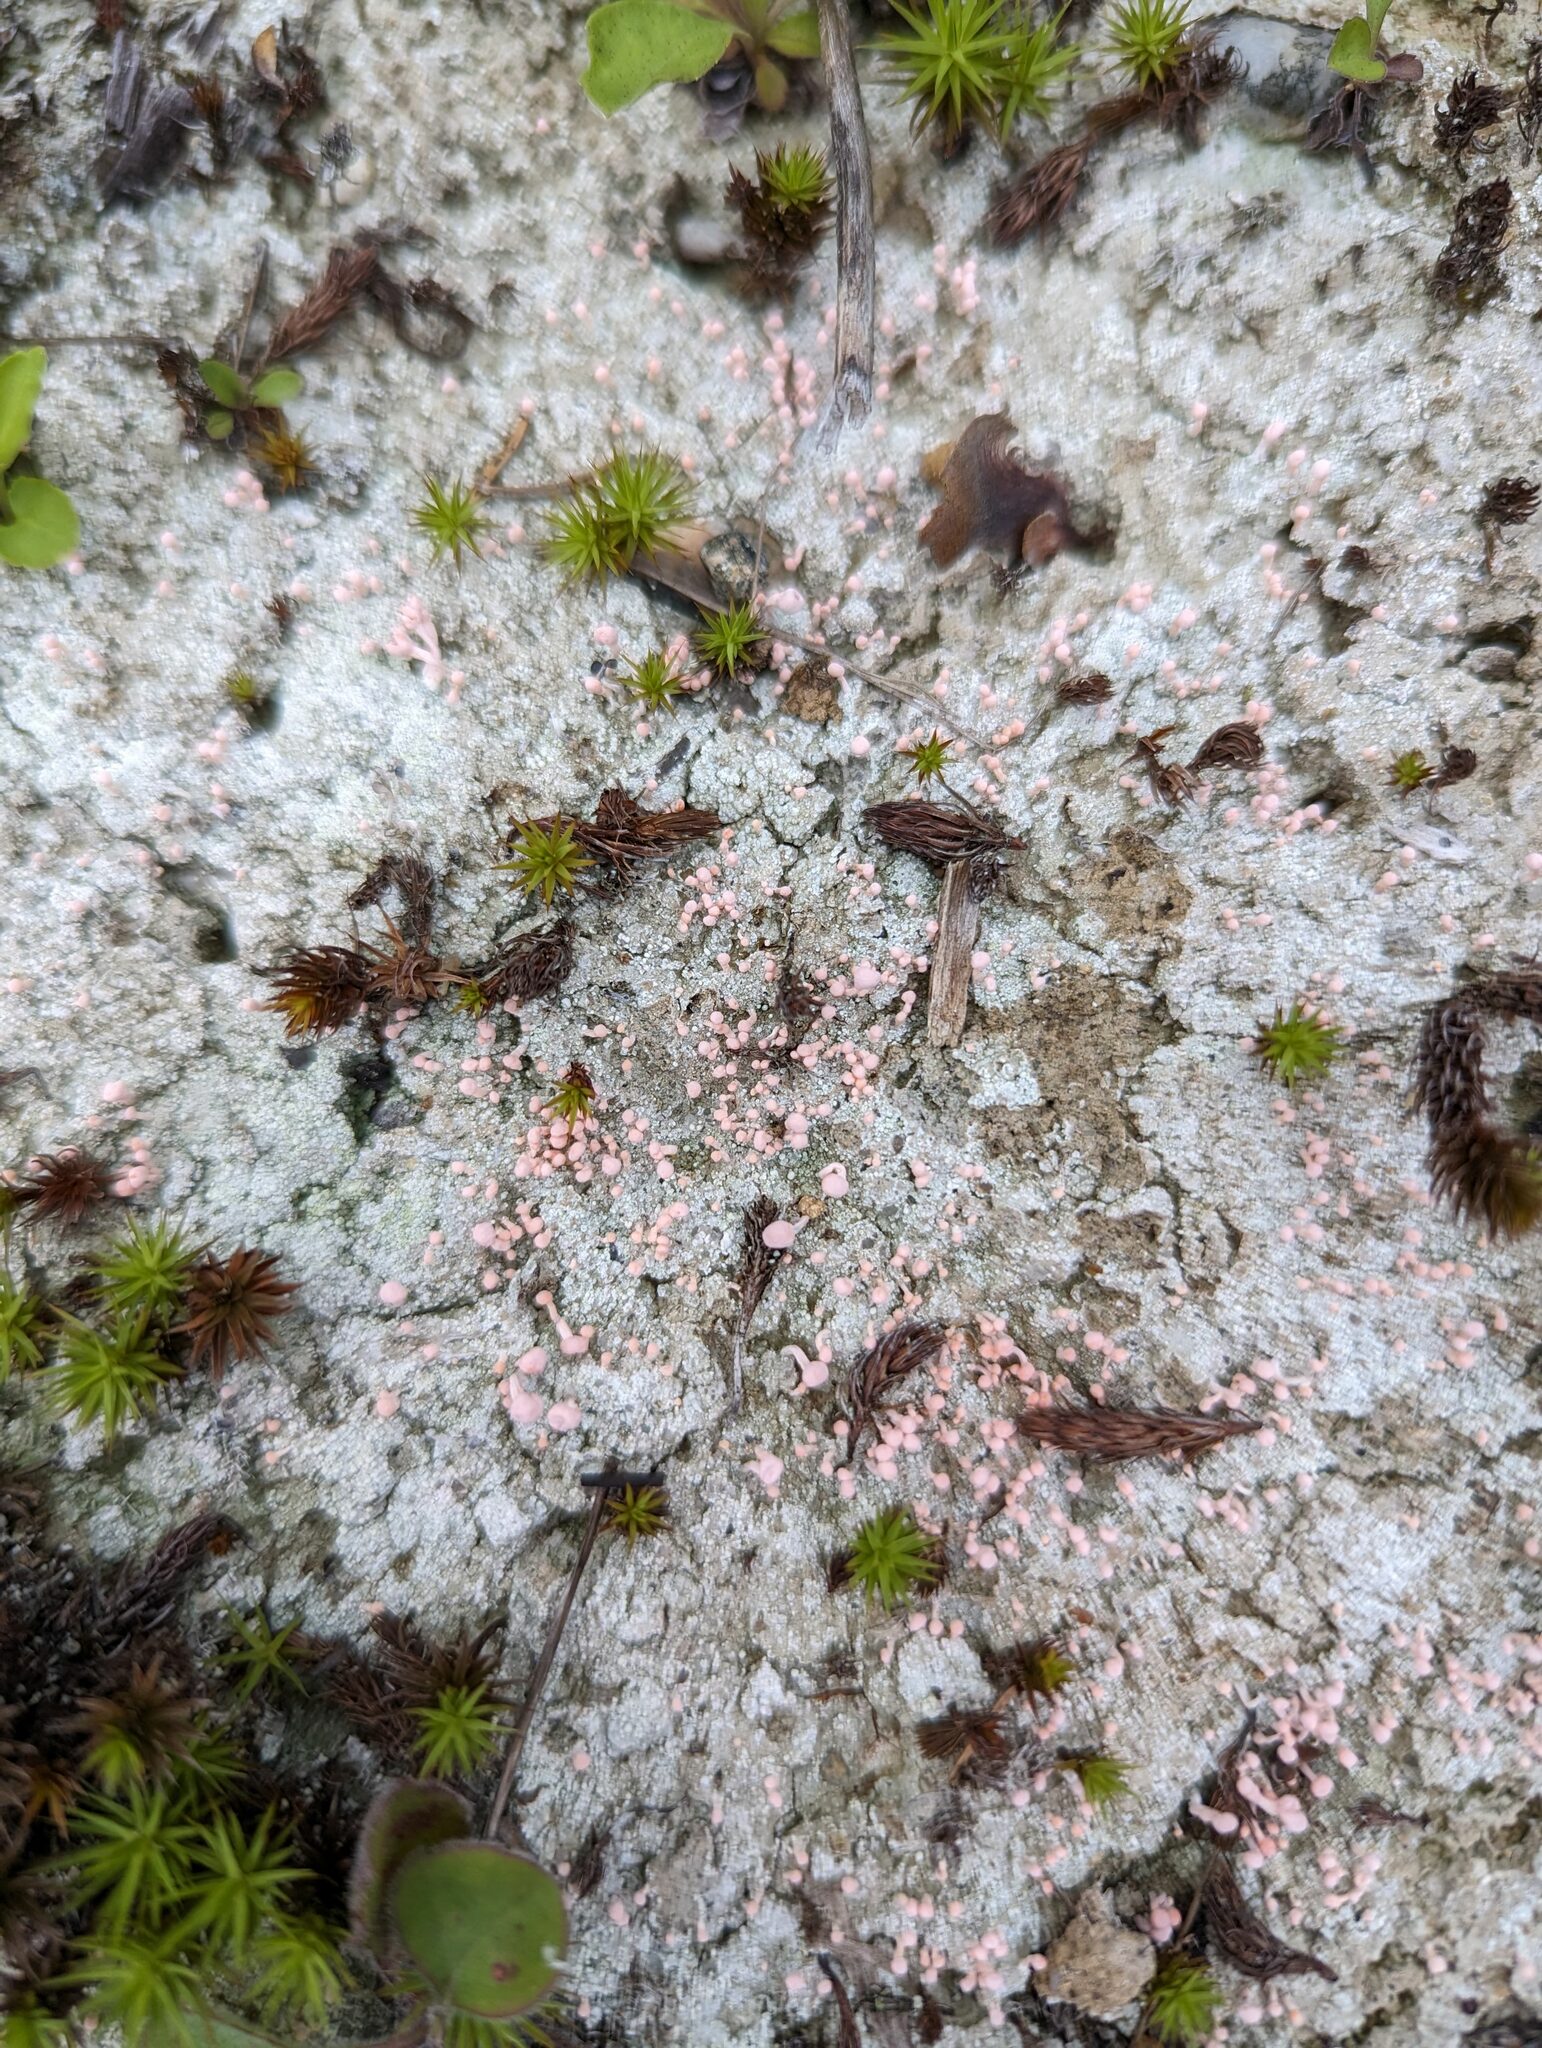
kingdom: Fungi
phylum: Ascomycota
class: Lecanoromycetes
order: Pertusariales
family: Icmadophilaceae
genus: Dibaeis
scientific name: Dibaeis baeomyces
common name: Pink earth lichen
